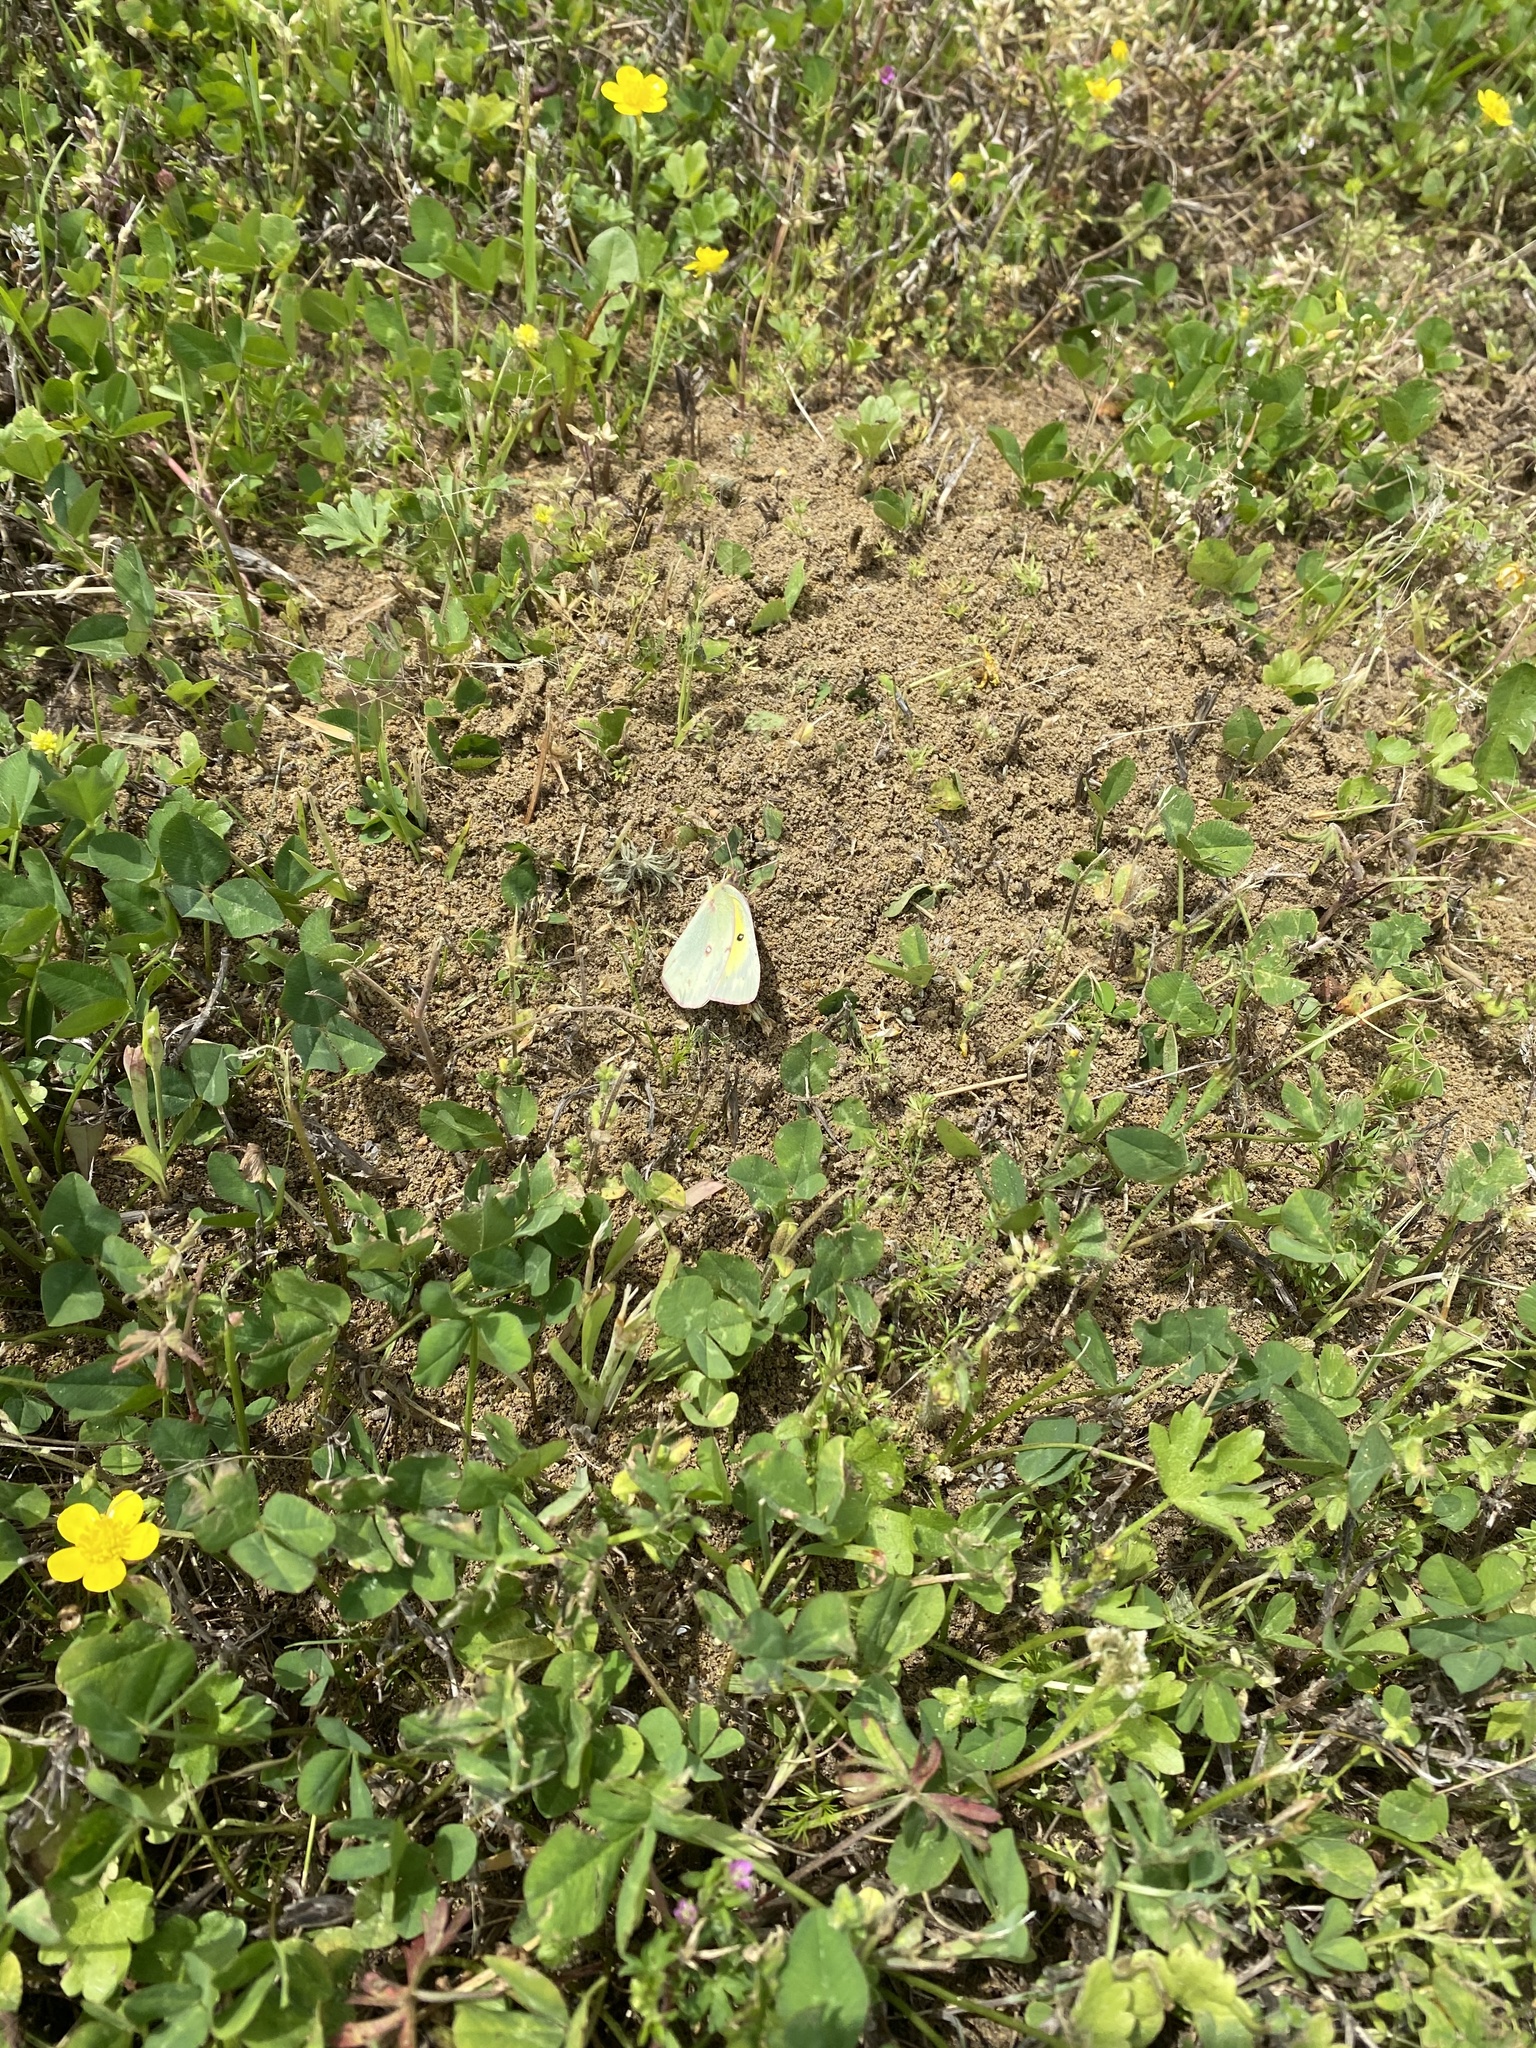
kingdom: Animalia
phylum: Arthropoda
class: Insecta
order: Lepidoptera
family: Pieridae
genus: Colias
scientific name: Colias eurytheme
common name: Alfalfa butterfly
